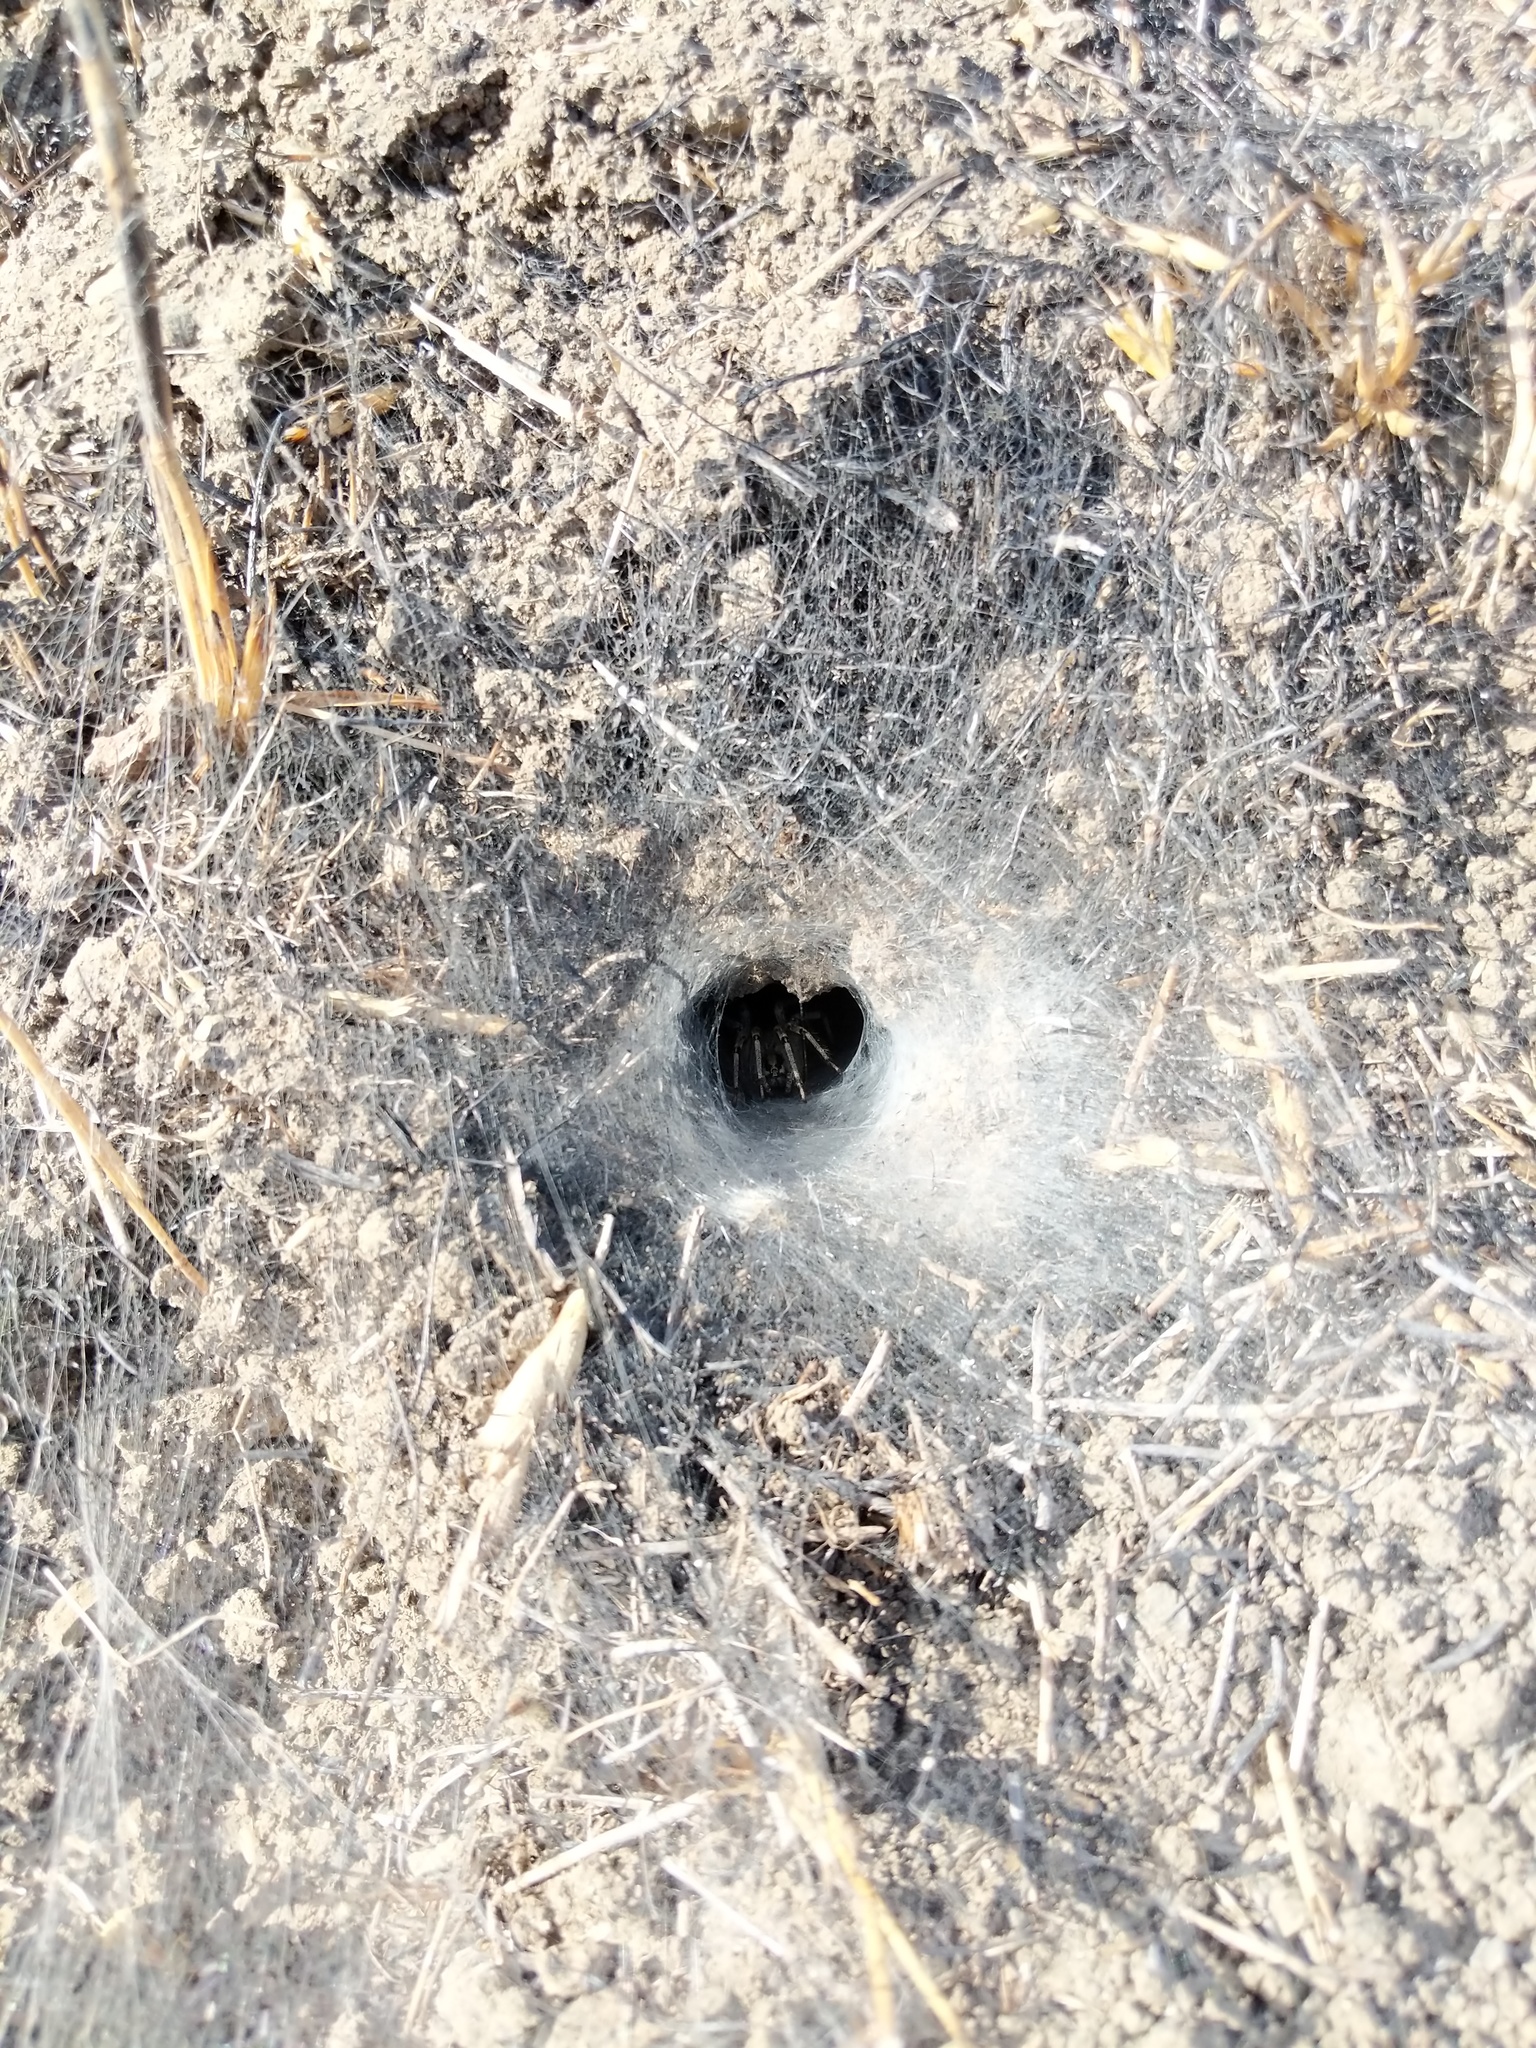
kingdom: Animalia
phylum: Arthropoda
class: Arachnida
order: Araneae
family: Agelenidae
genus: Agelenopsis
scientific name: Agelenopsis aperta
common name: Desert grass spider
